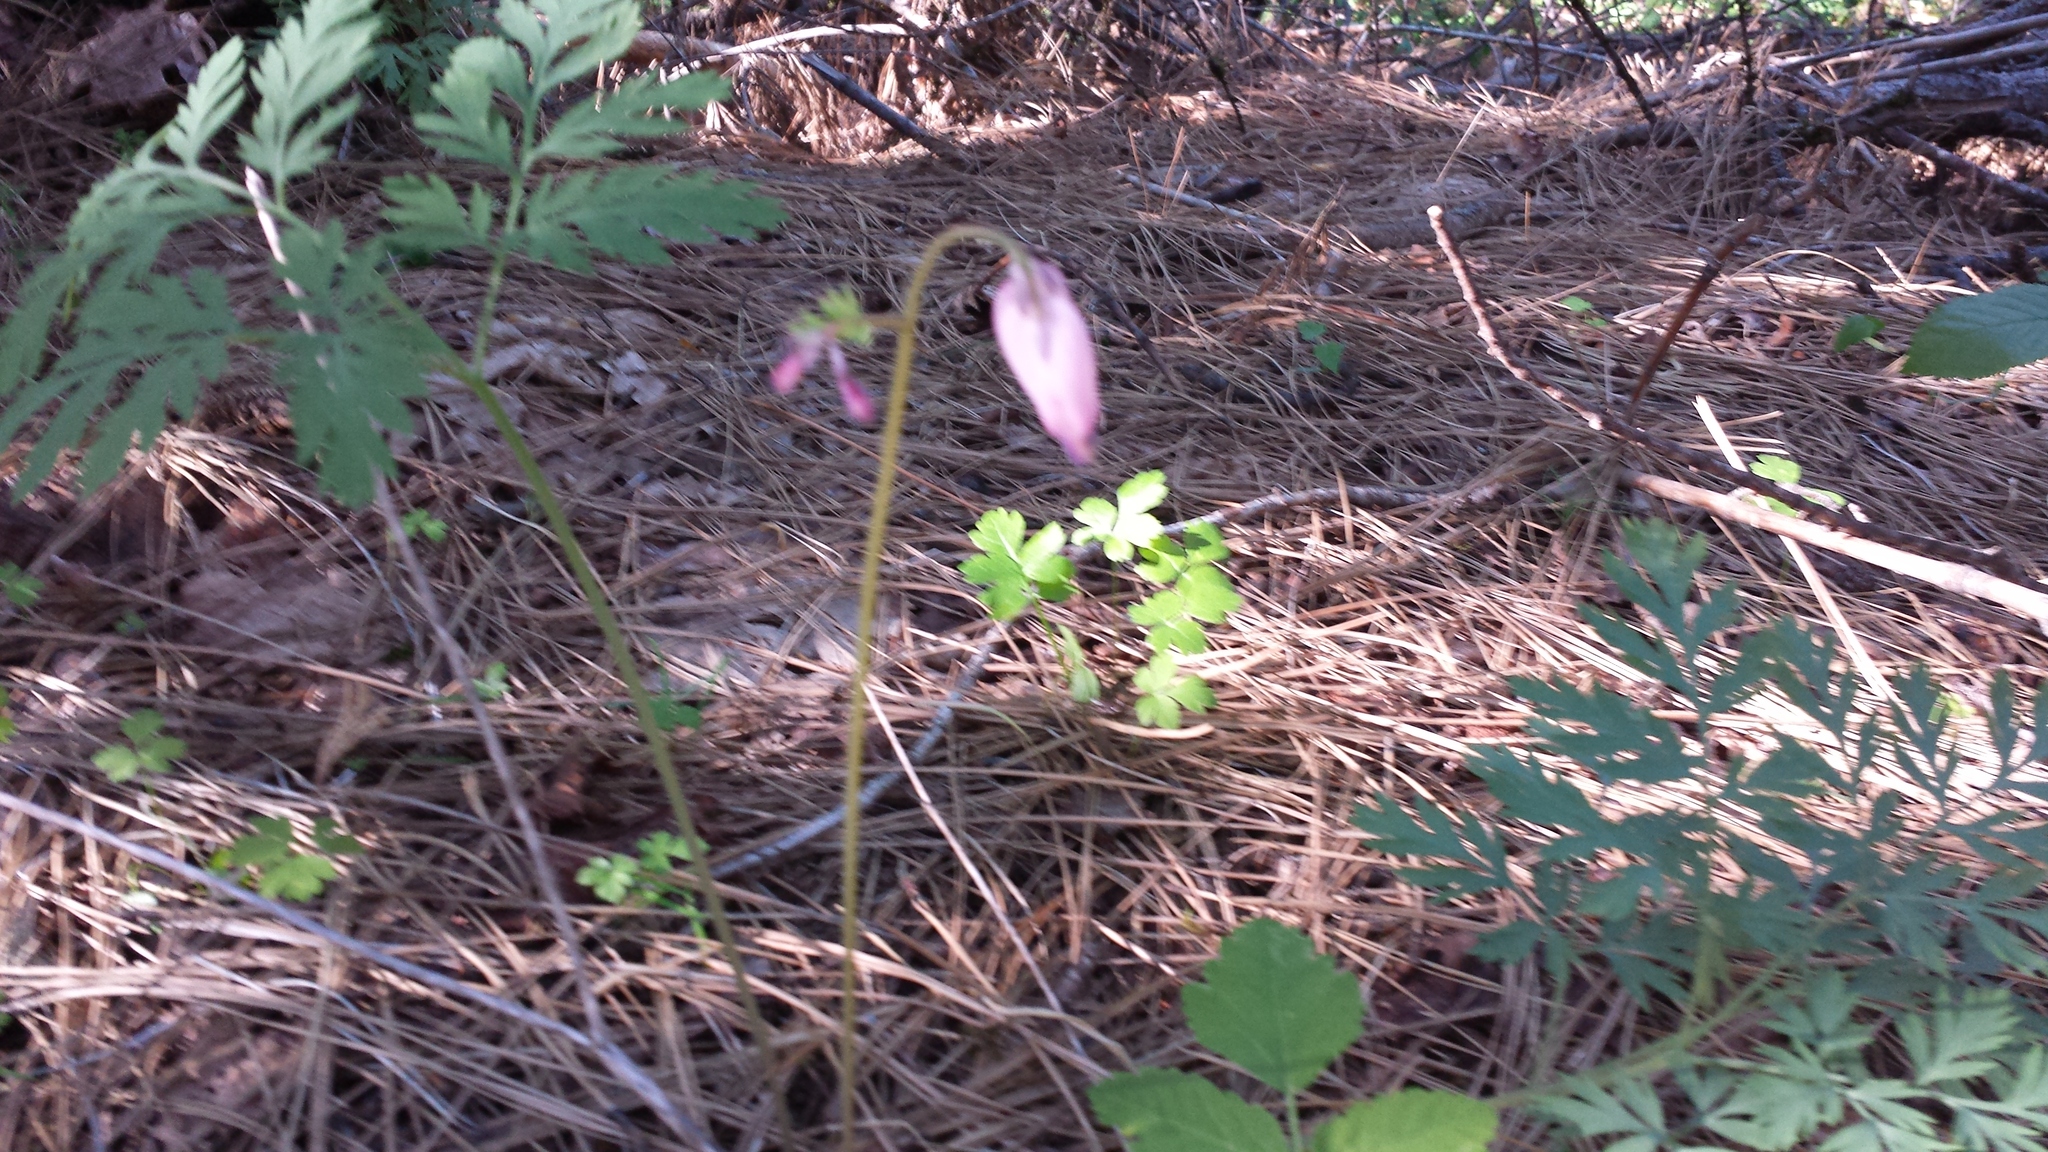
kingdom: Plantae
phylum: Tracheophyta
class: Magnoliopsida
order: Ranunculales
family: Papaveraceae
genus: Dicentra
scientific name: Dicentra formosa
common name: Bleeding-heart
